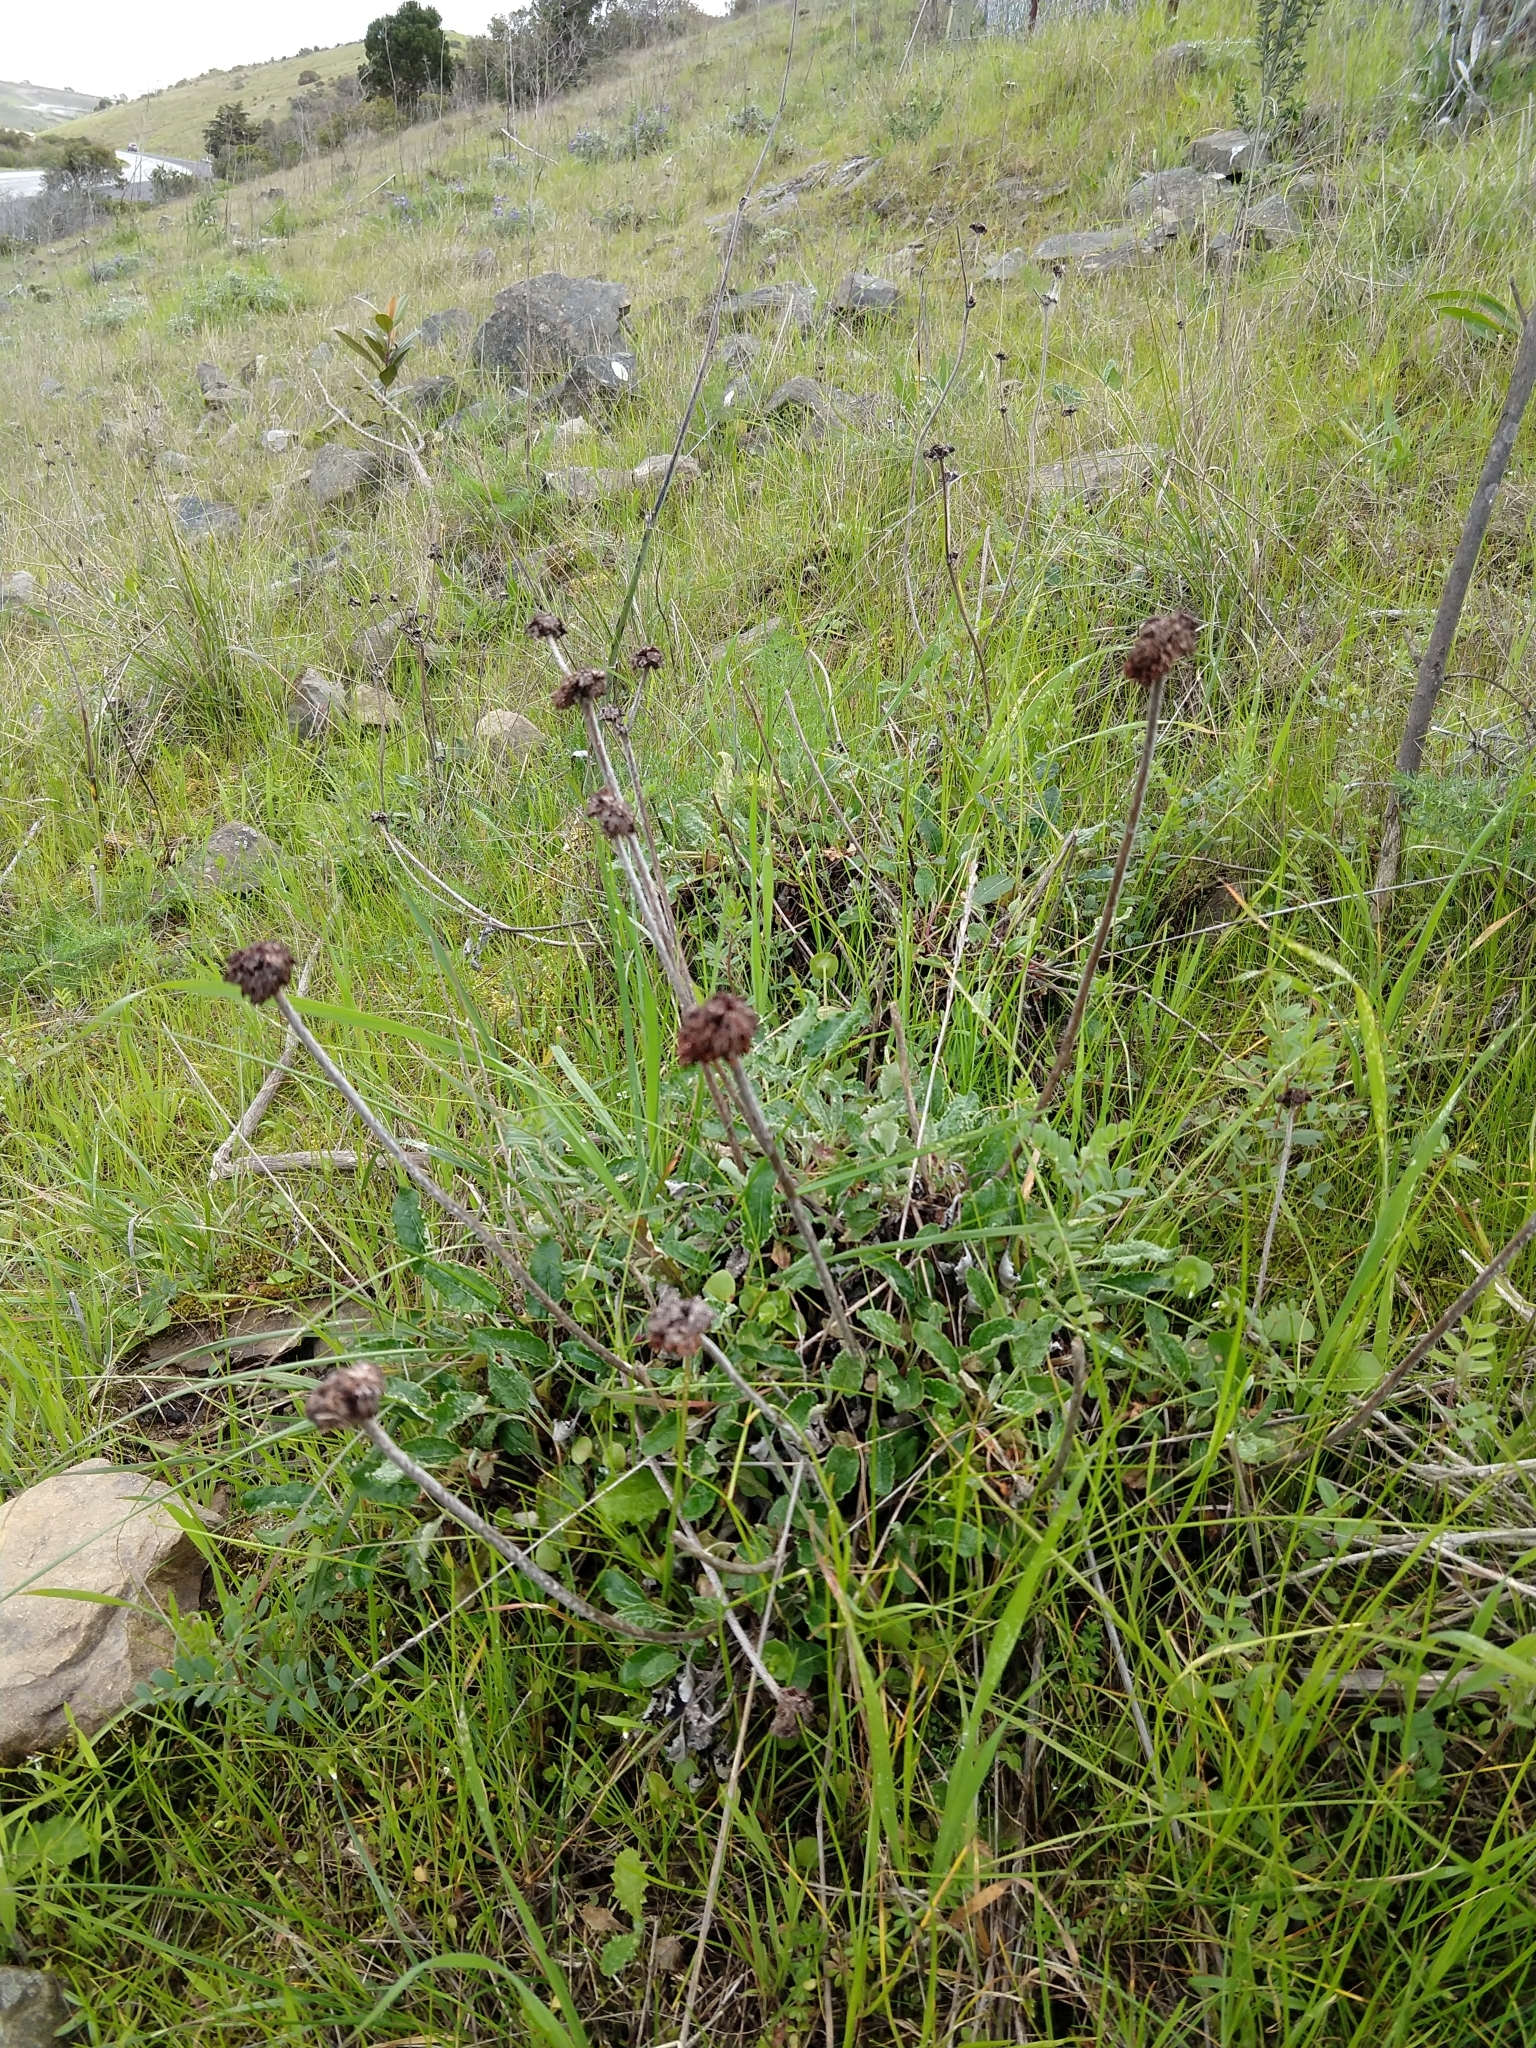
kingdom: Plantae
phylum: Tracheophyta
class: Magnoliopsida
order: Caryophyllales
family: Polygonaceae
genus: Eriogonum
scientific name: Eriogonum latifolium
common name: Seaside wild buckwheat
